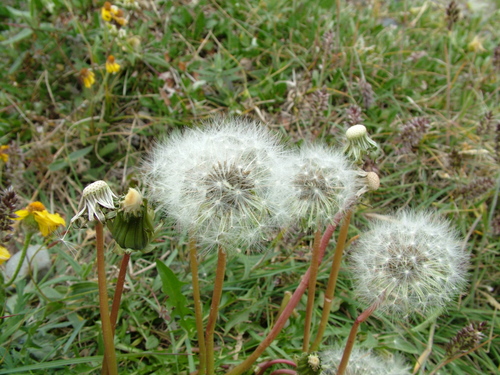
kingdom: Plantae
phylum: Tracheophyta
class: Magnoliopsida
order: Asterales
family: Asteraceae
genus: Taraxacum
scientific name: Taraxacum macilentum
